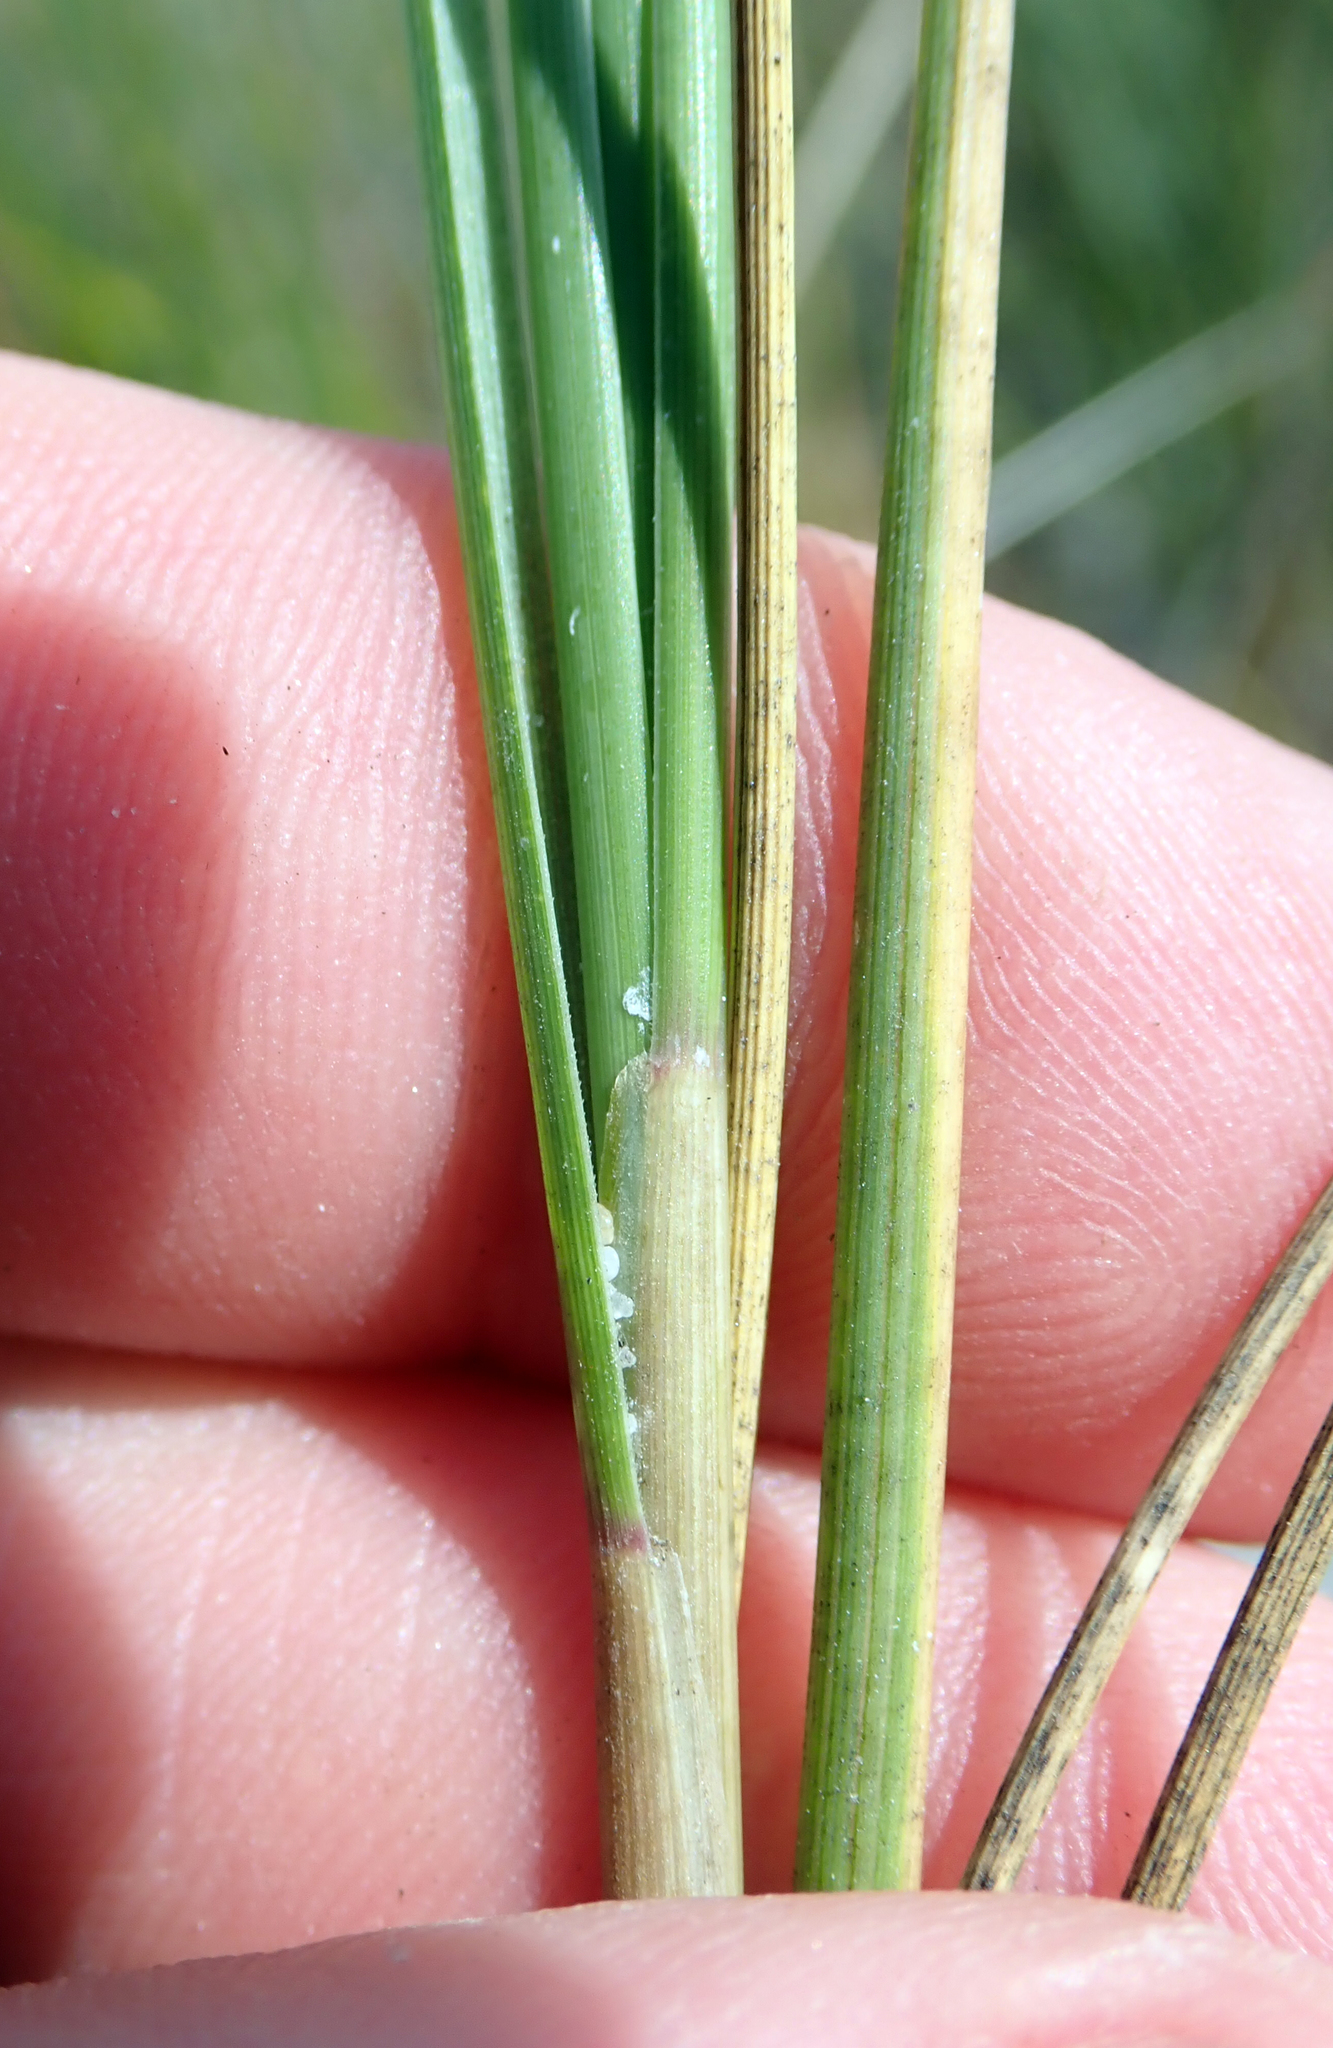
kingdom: Plantae
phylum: Tracheophyta
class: Liliopsida
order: Poales
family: Poaceae
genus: Poa
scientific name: Poa chathamica
